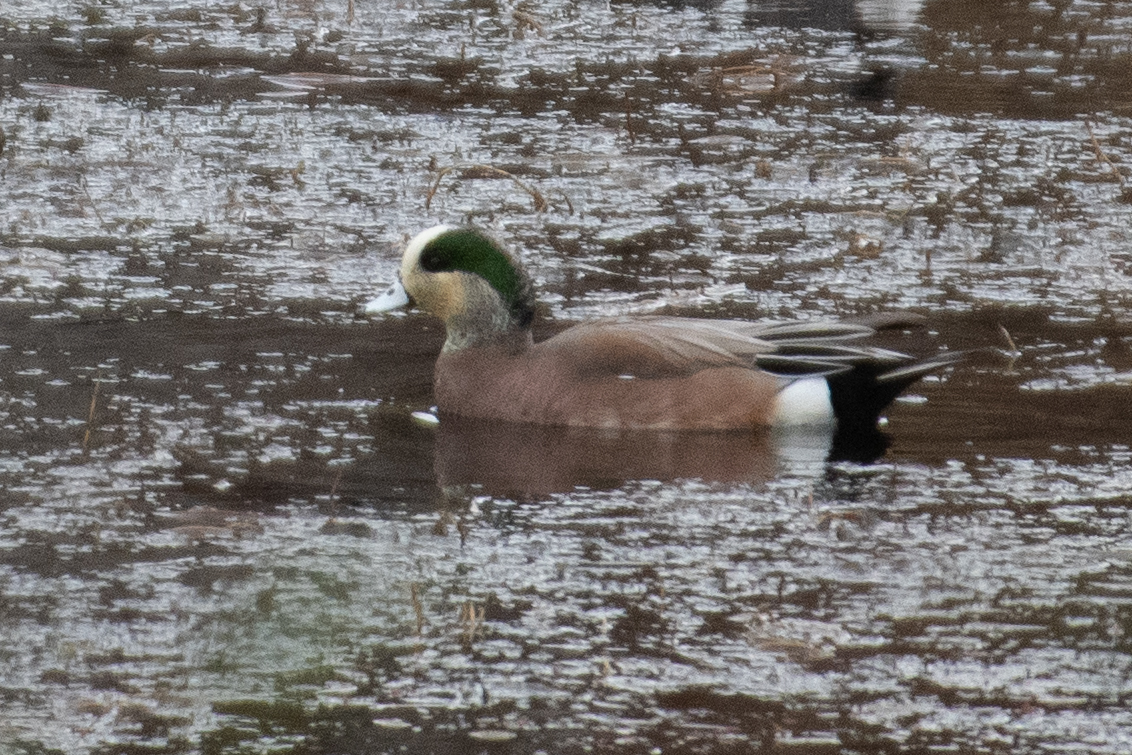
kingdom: Animalia
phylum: Chordata
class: Aves
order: Anseriformes
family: Anatidae
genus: Mareca
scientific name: Mareca americana
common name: American wigeon
